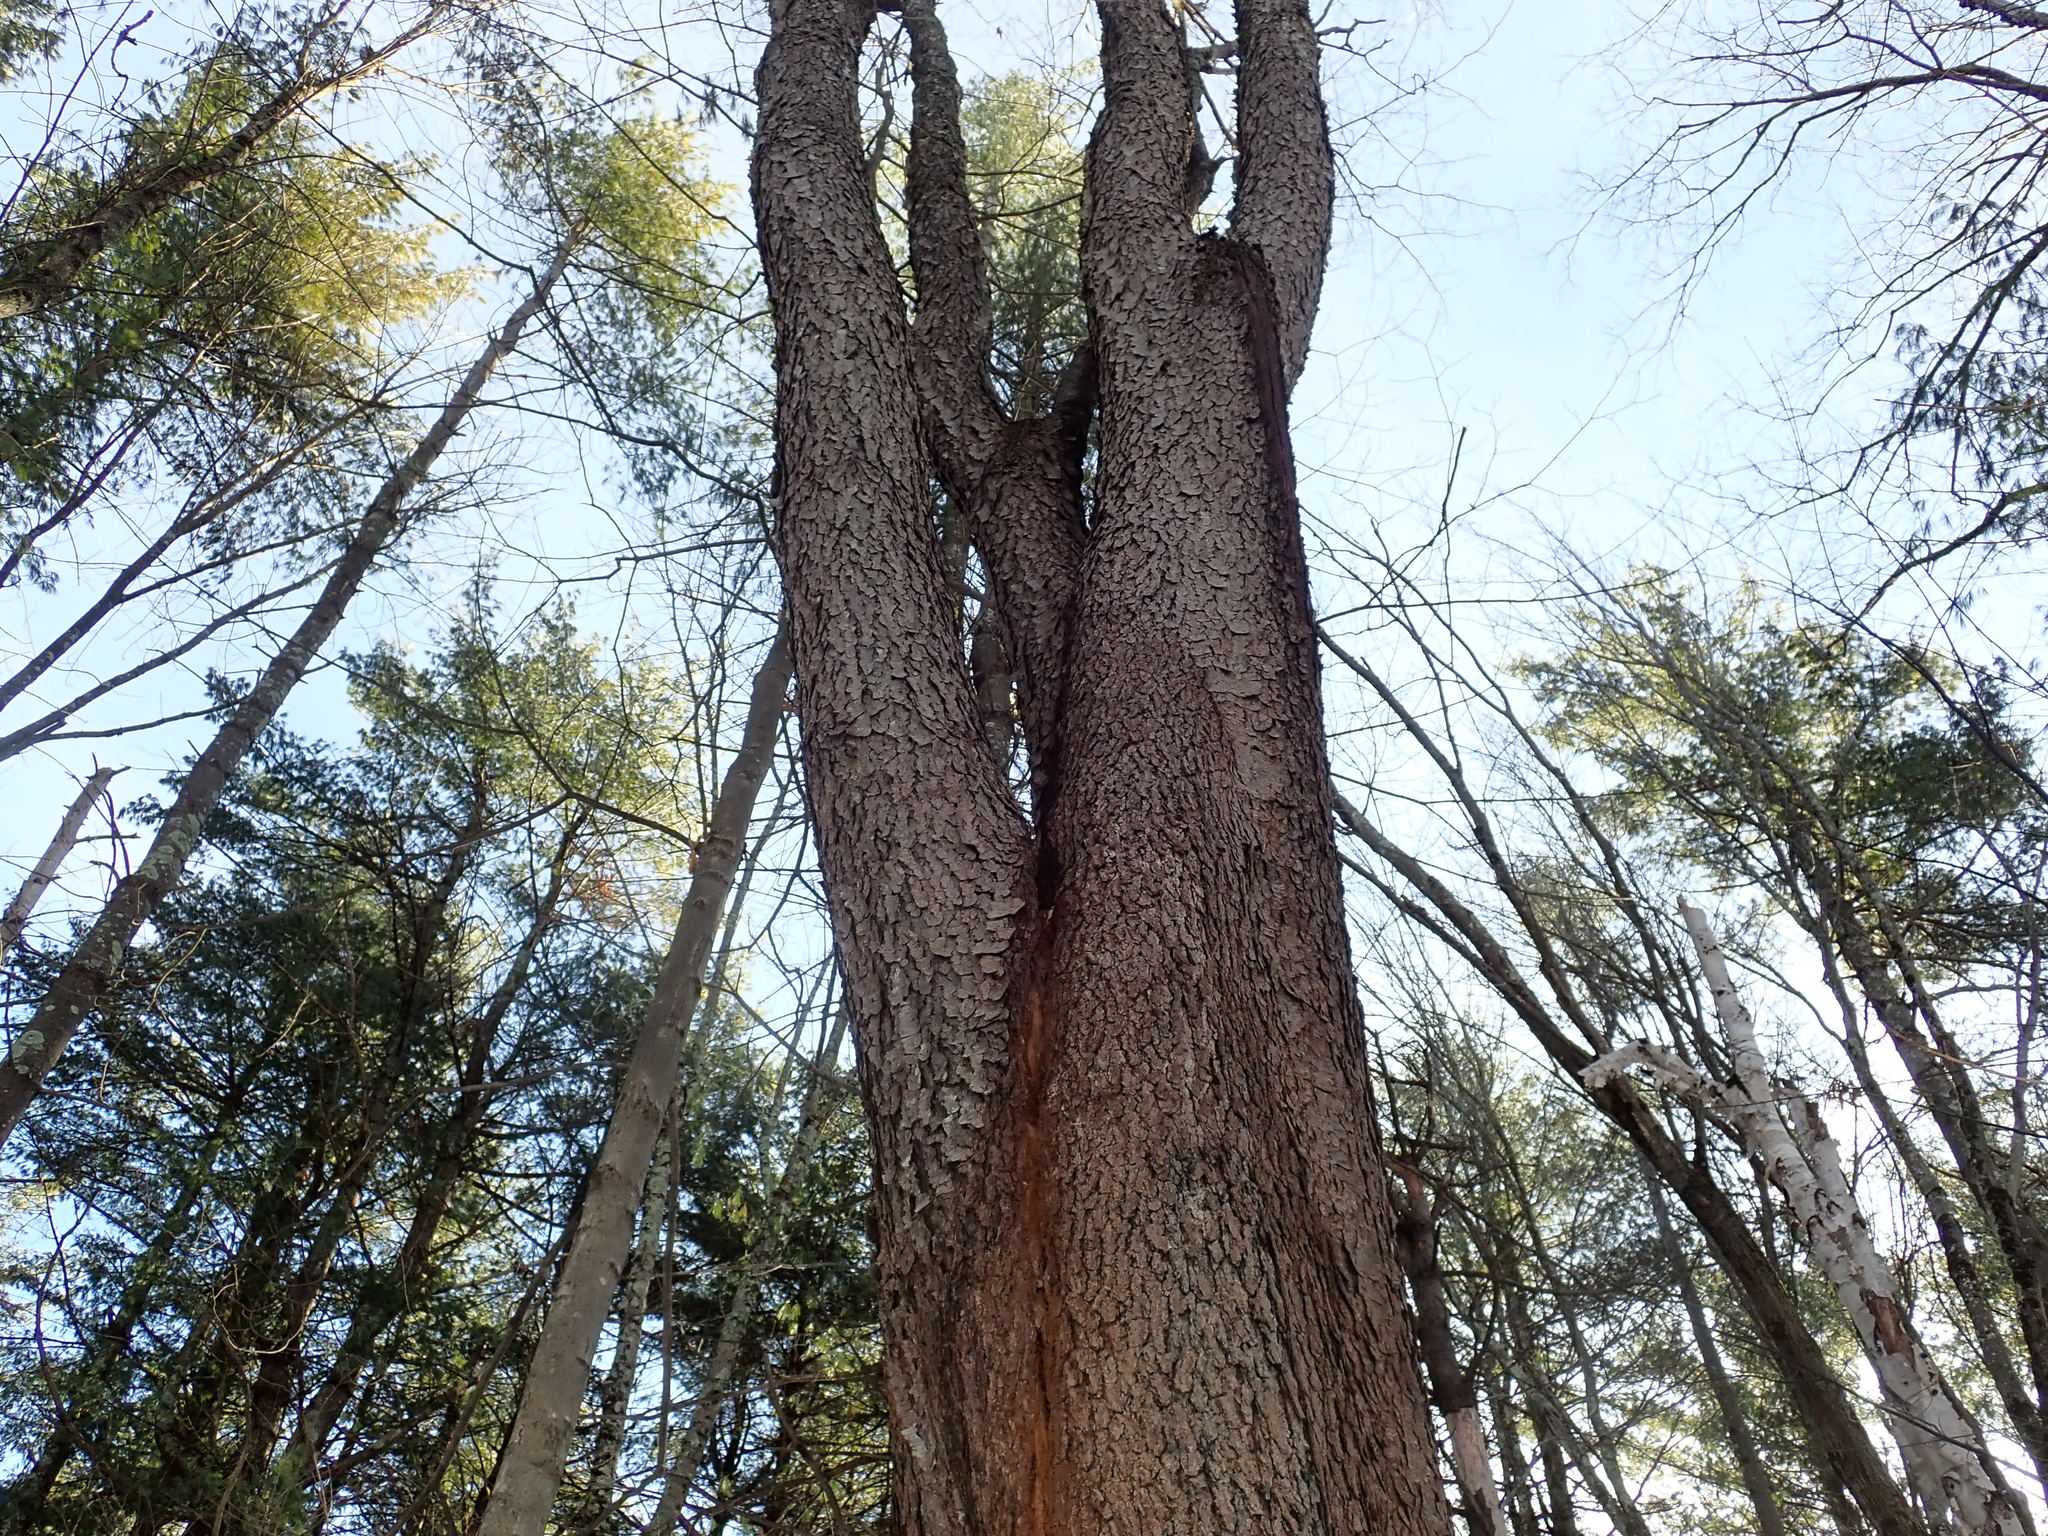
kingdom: Plantae
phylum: Tracheophyta
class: Magnoliopsida
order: Rosales
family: Rosaceae
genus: Prunus
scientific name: Prunus serotina
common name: Black cherry
